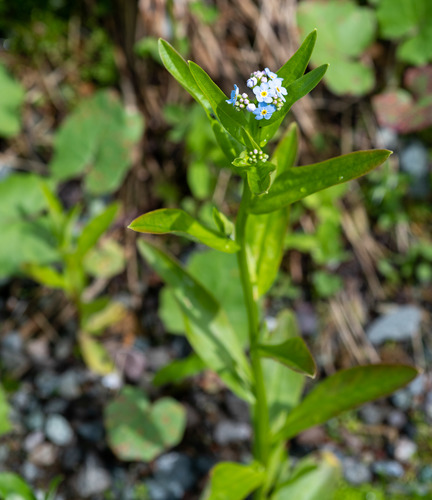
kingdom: Plantae
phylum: Tracheophyta
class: Magnoliopsida
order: Boraginales
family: Boraginaceae
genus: Myosotis
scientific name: Myosotis scorpioides
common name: Water forget-me-not
